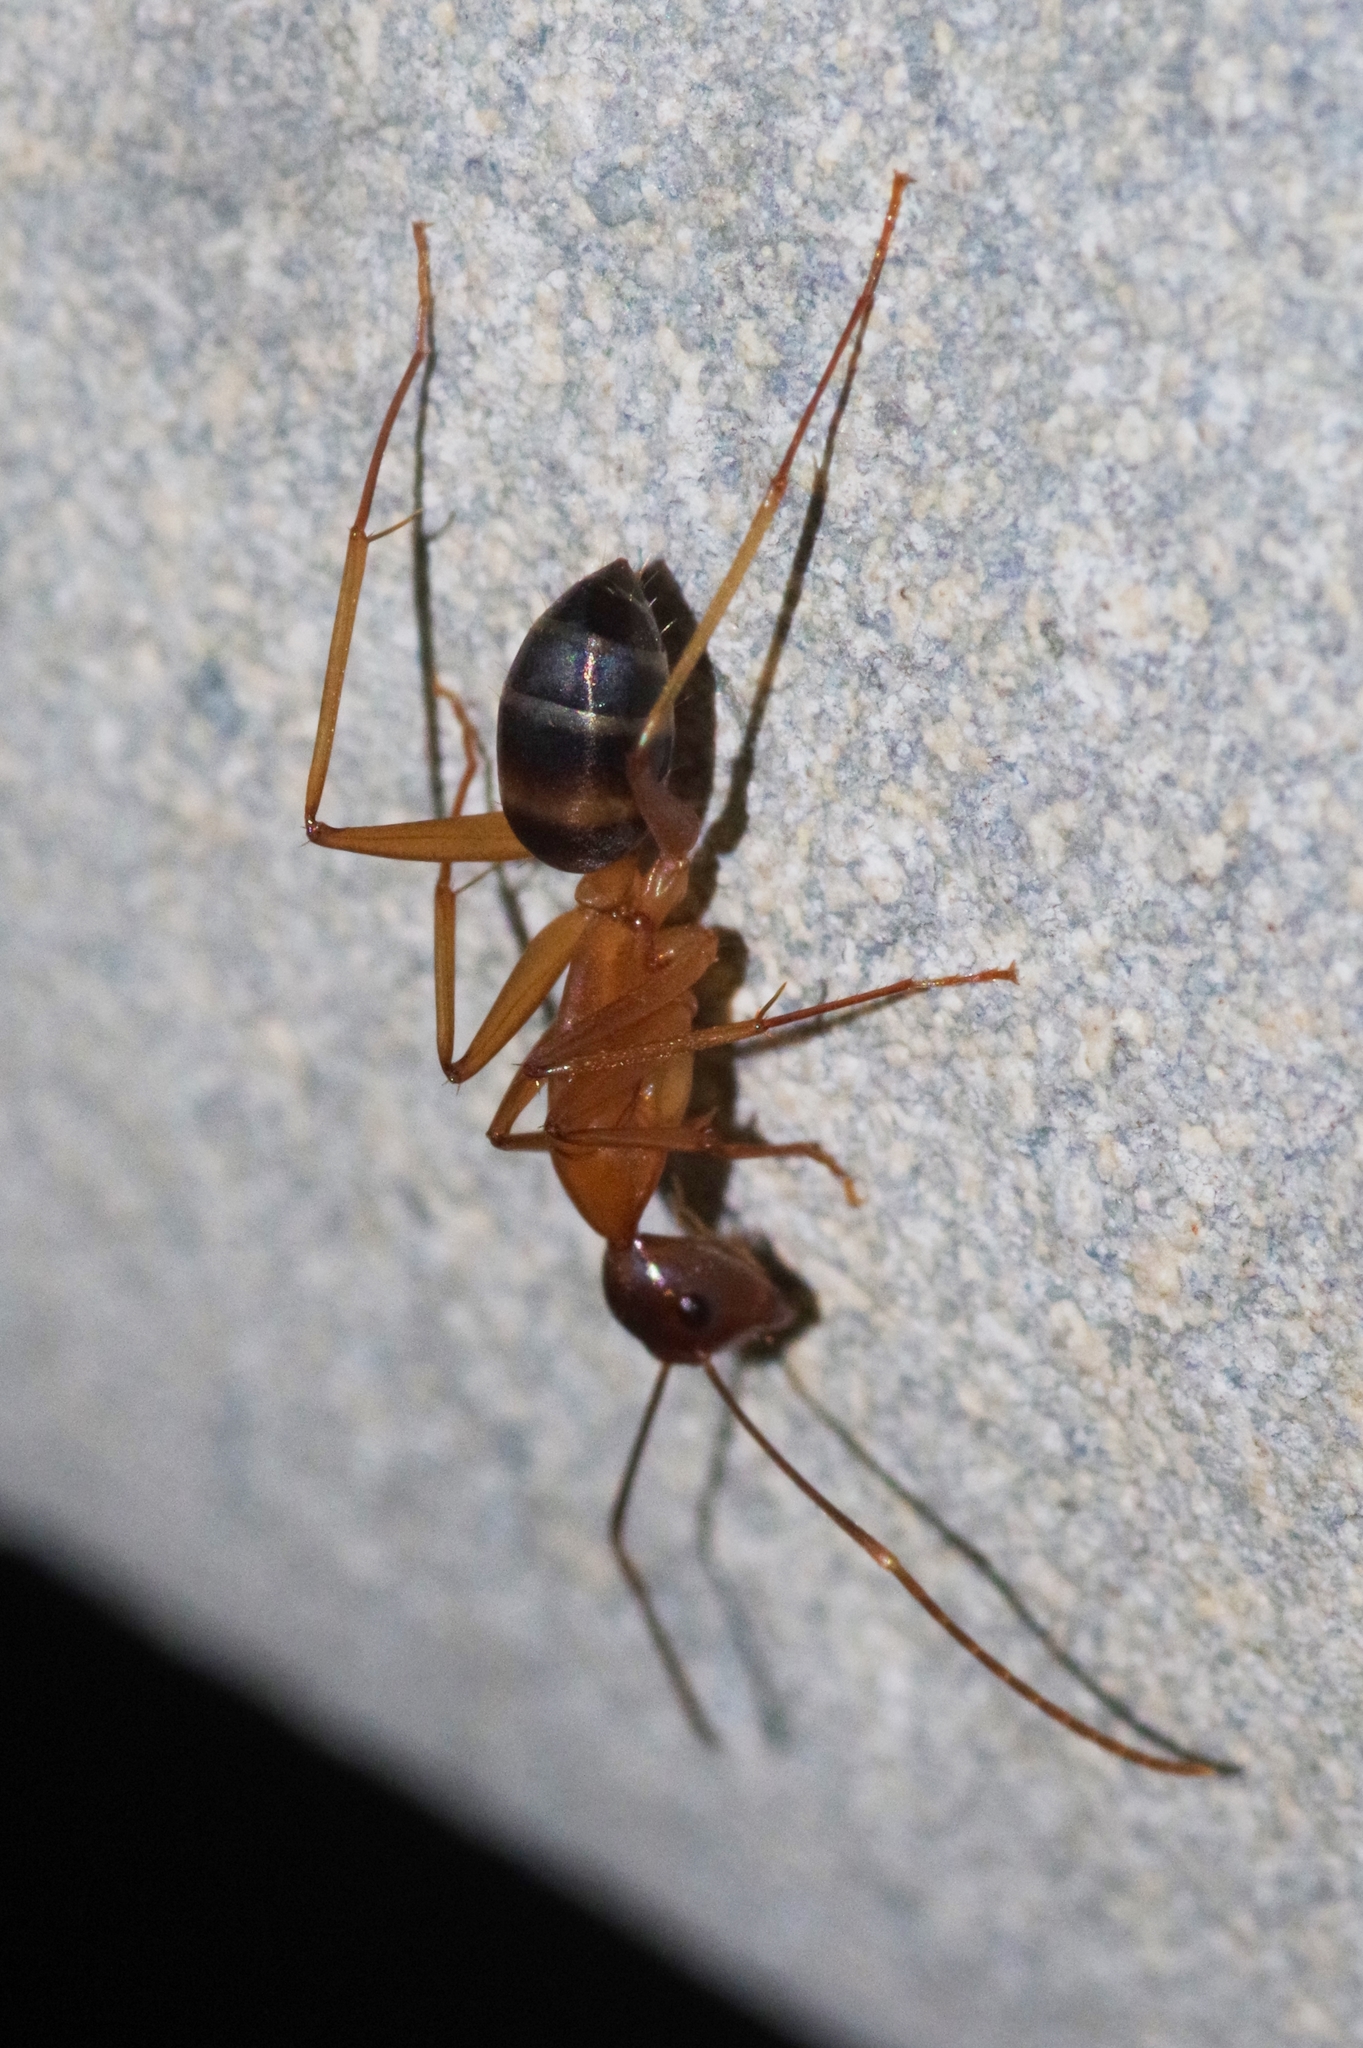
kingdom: Animalia
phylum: Arthropoda
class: Insecta
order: Hymenoptera
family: Formicidae
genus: Camponotus
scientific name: Camponotus devestitus
